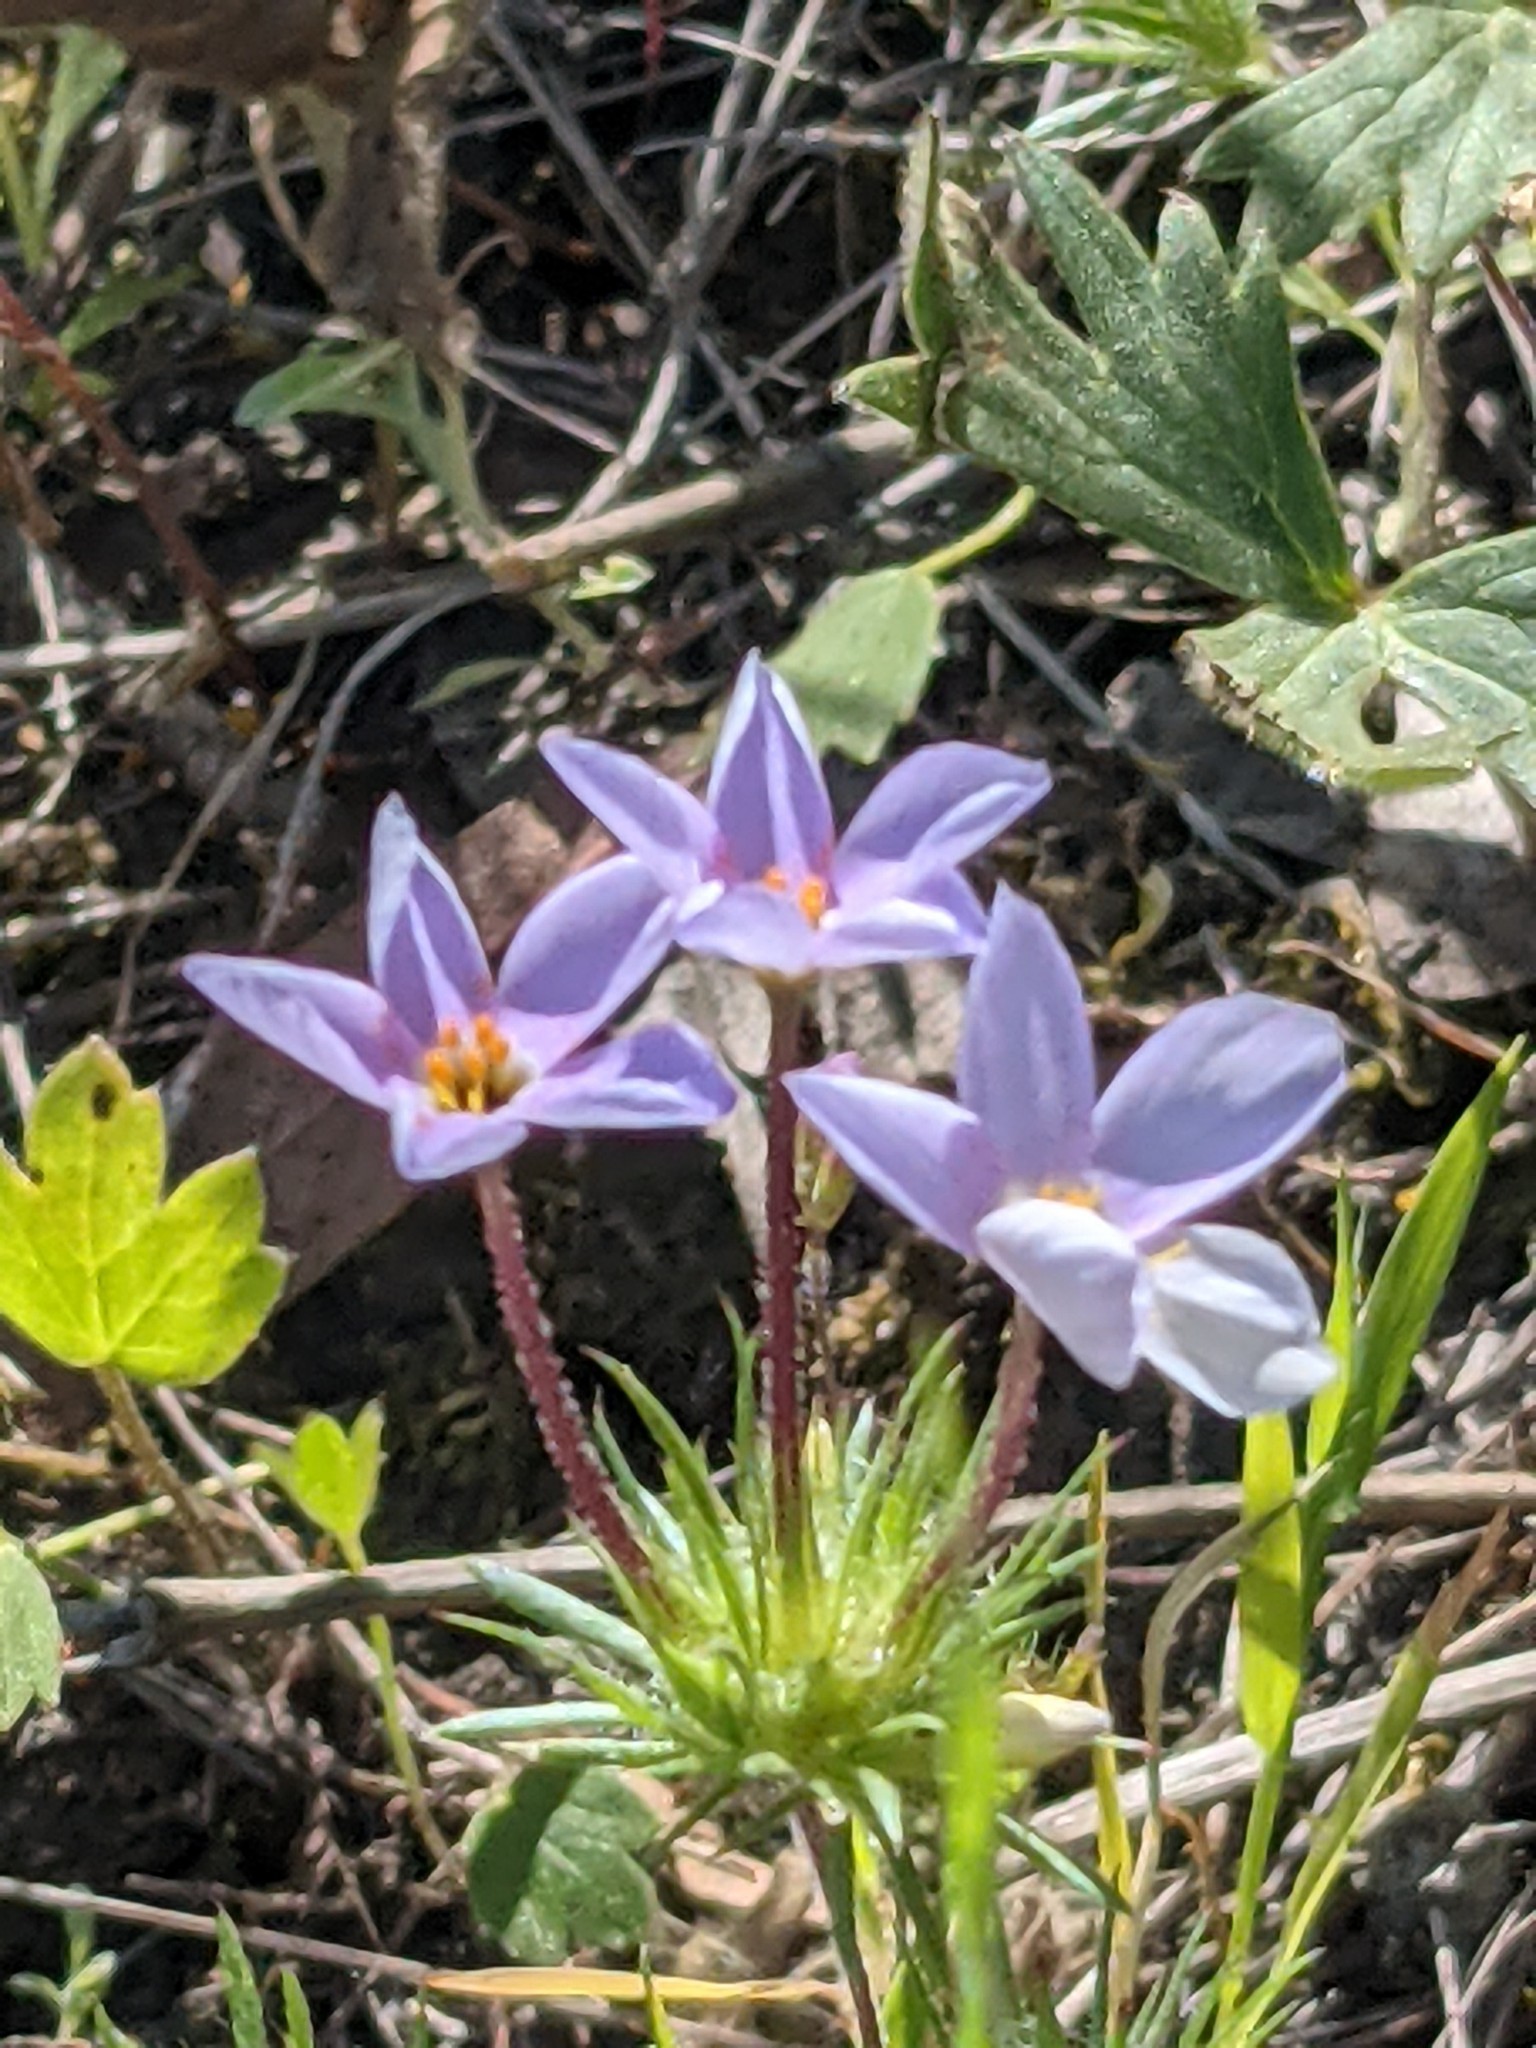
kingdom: Plantae
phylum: Tracheophyta
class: Magnoliopsida
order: Ericales
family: Polemoniaceae
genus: Leptosiphon
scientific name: Leptosiphon androsaceus
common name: False babystars
